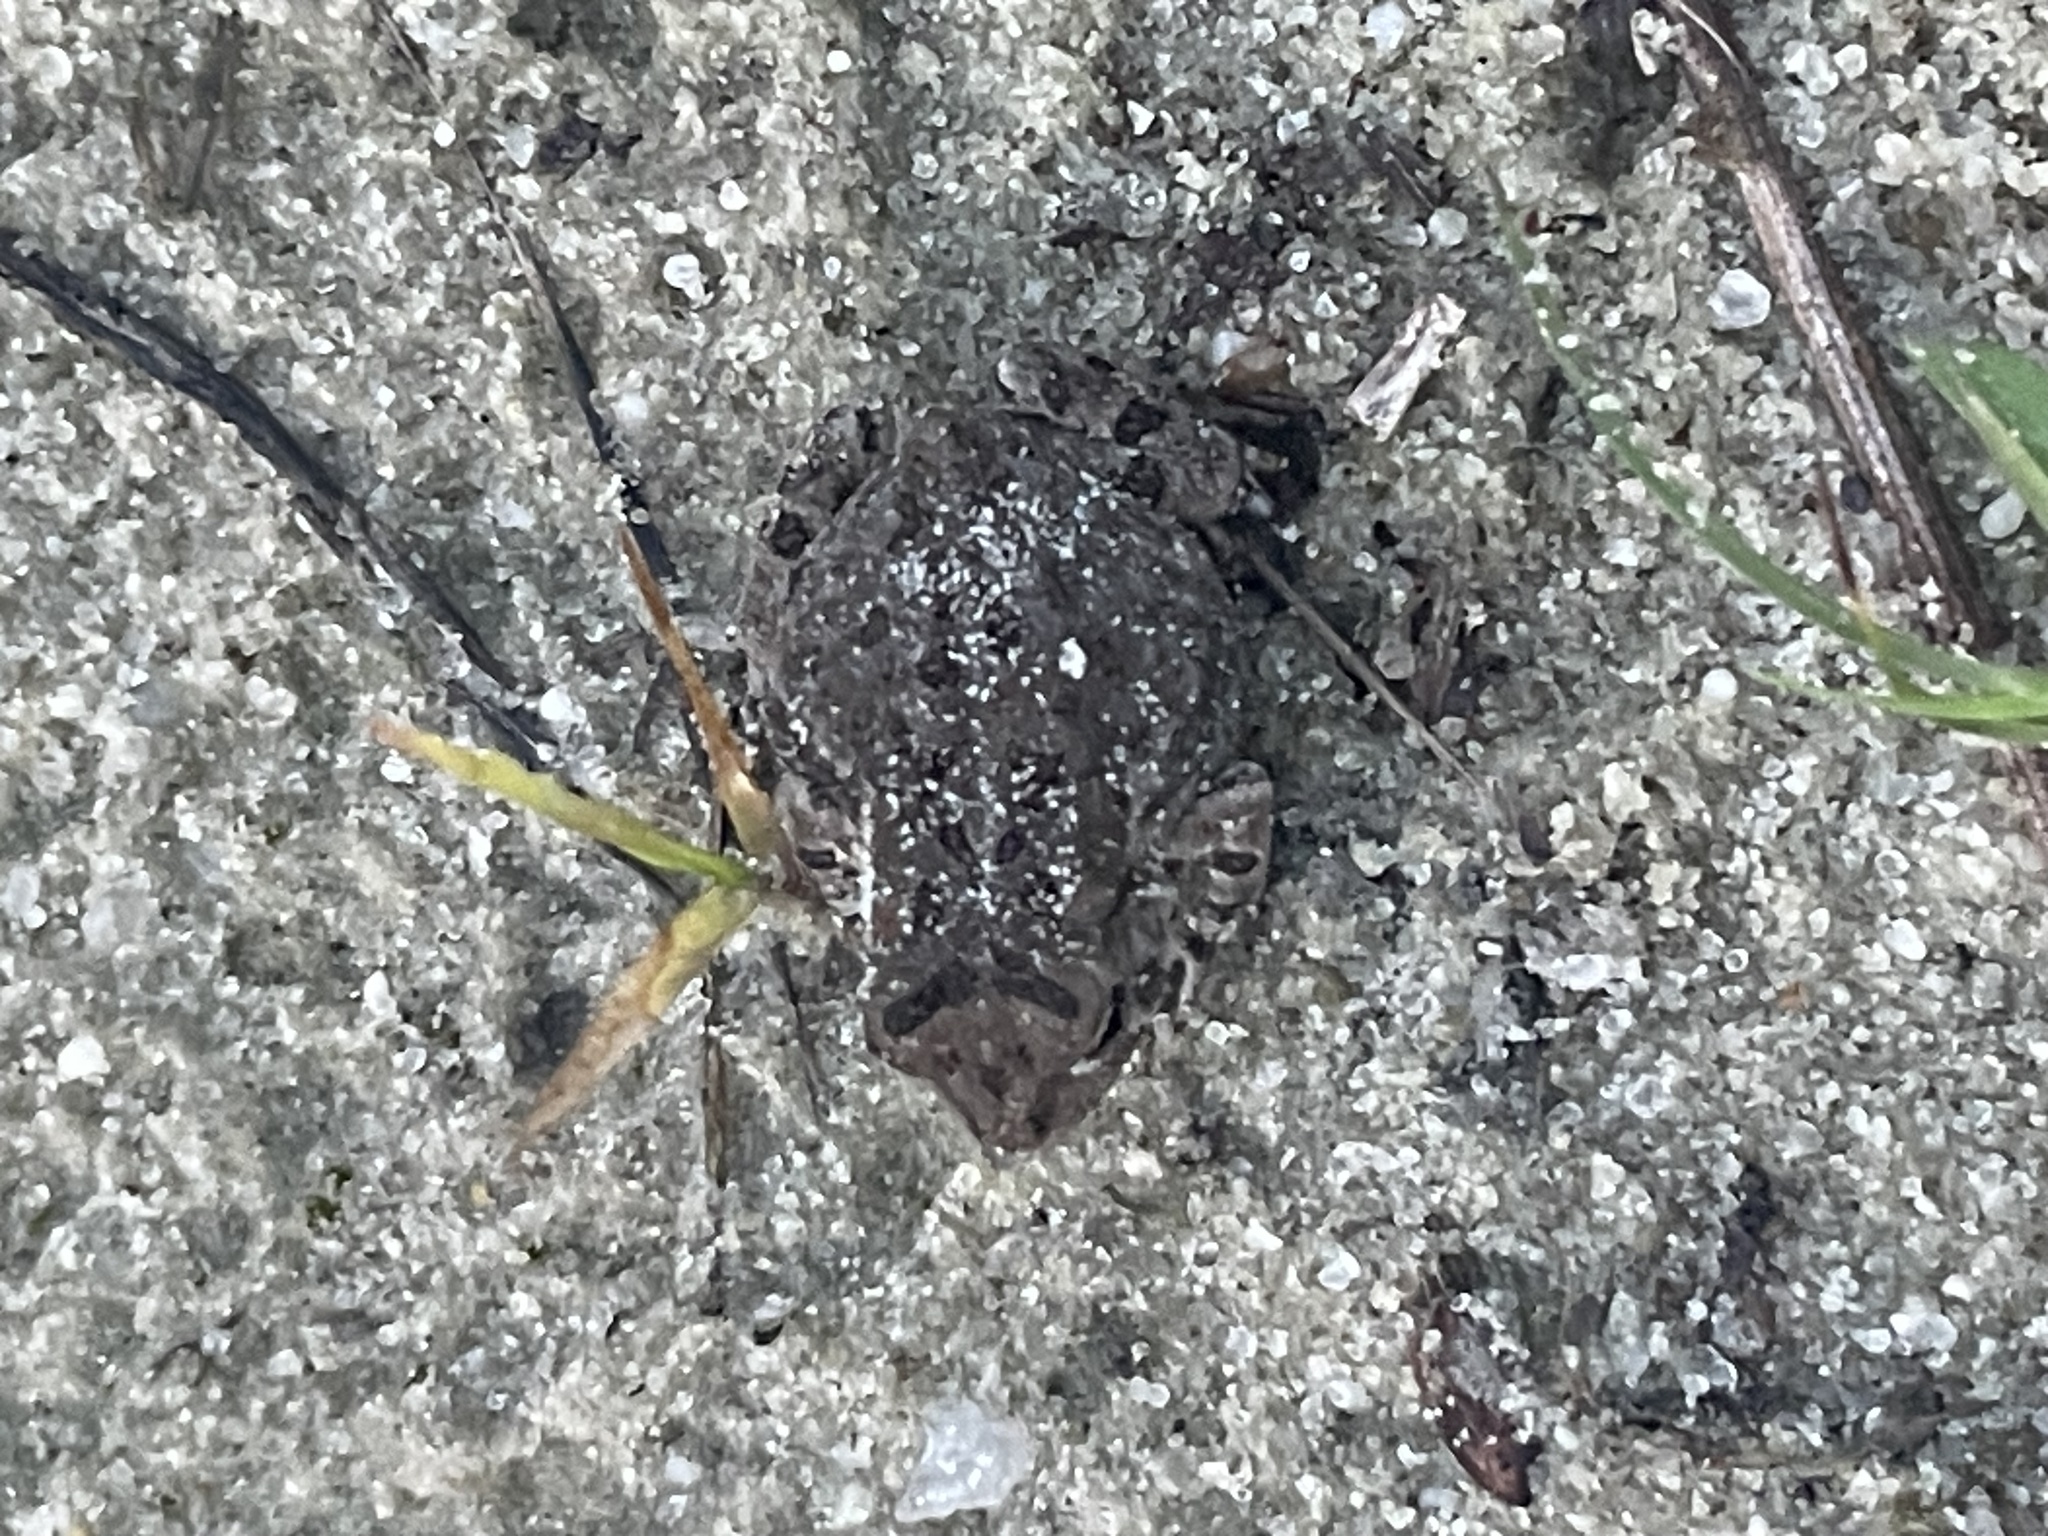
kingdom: Animalia
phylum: Chordata
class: Amphibia
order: Anura
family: Bufonidae
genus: Anaxyrus
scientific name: Anaxyrus fowleri
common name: Fowler's toad
